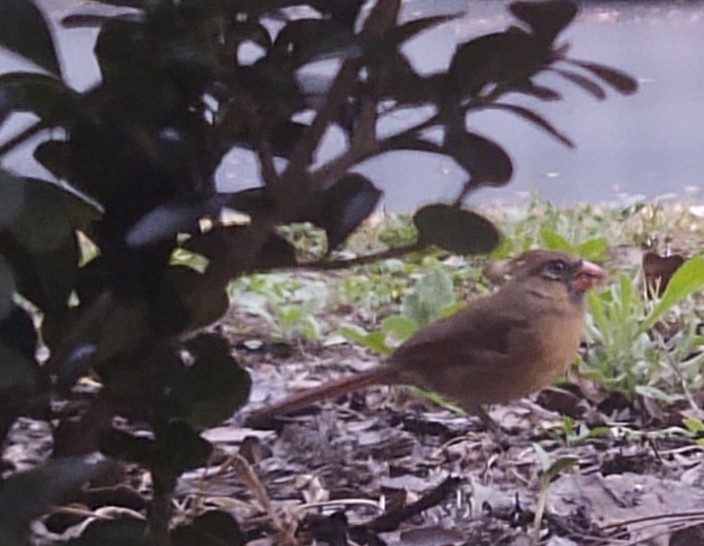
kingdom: Animalia
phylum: Chordata
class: Aves
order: Passeriformes
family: Cardinalidae
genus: Cardinalis
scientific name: Cardinalis cardinalis
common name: Northern cardinal
